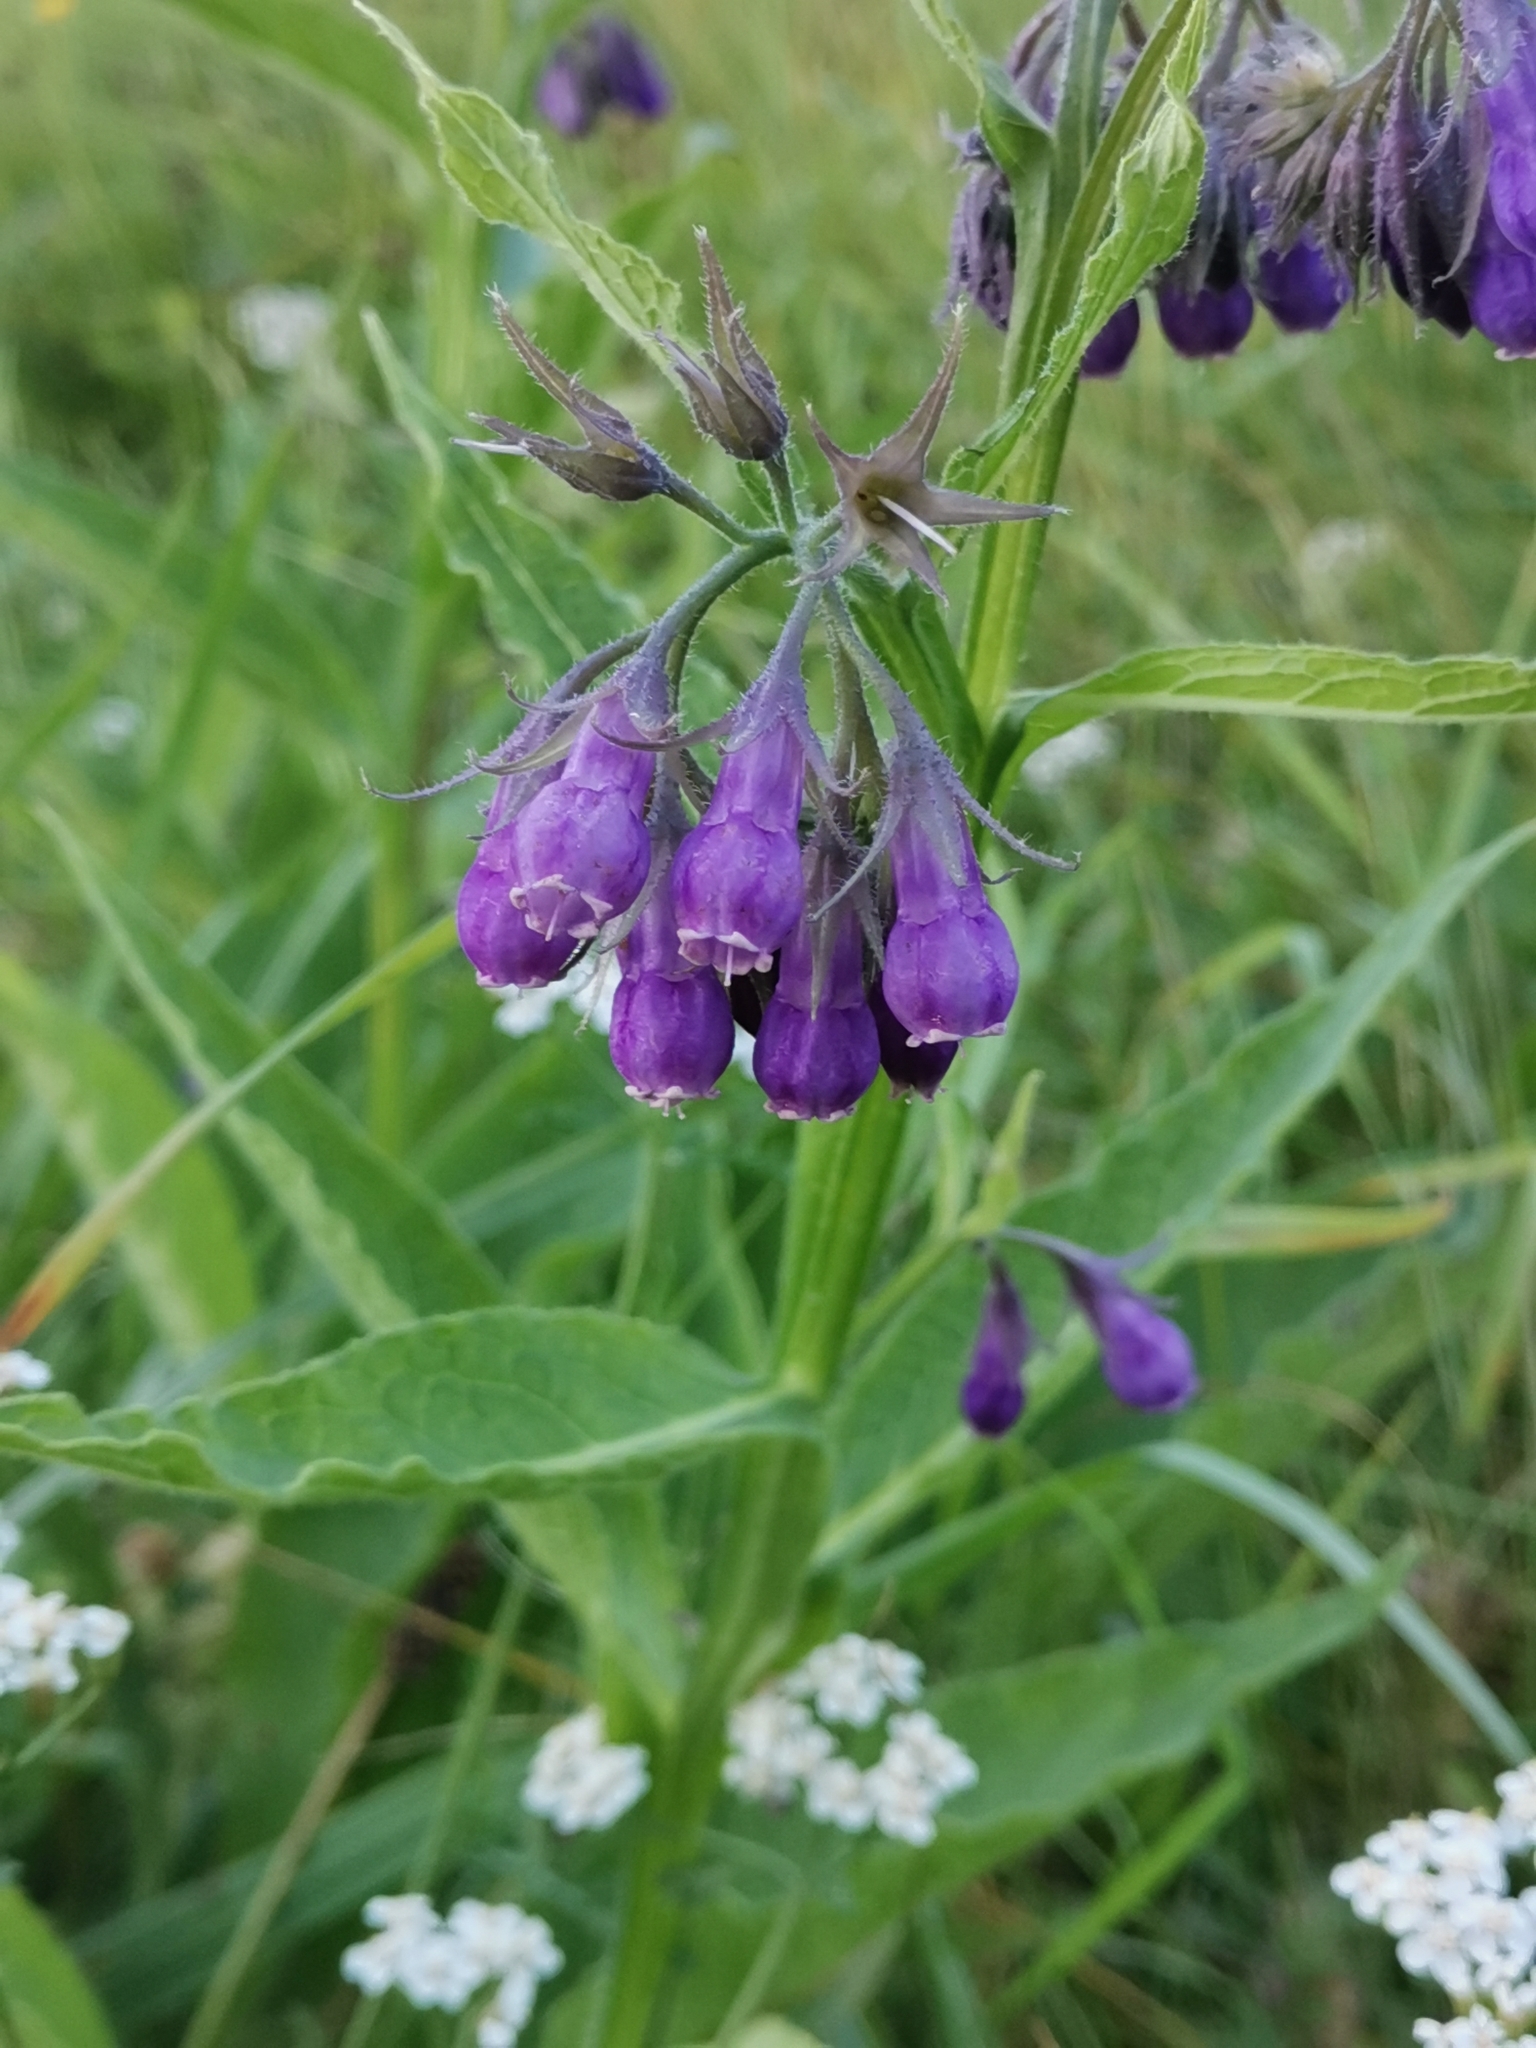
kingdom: Plantae
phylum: Tracheophyta
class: Magnoliopsida
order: Boraginales
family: Boraginaceae
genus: Symphytum
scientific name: Symphytum officinale
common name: Common comfrey
